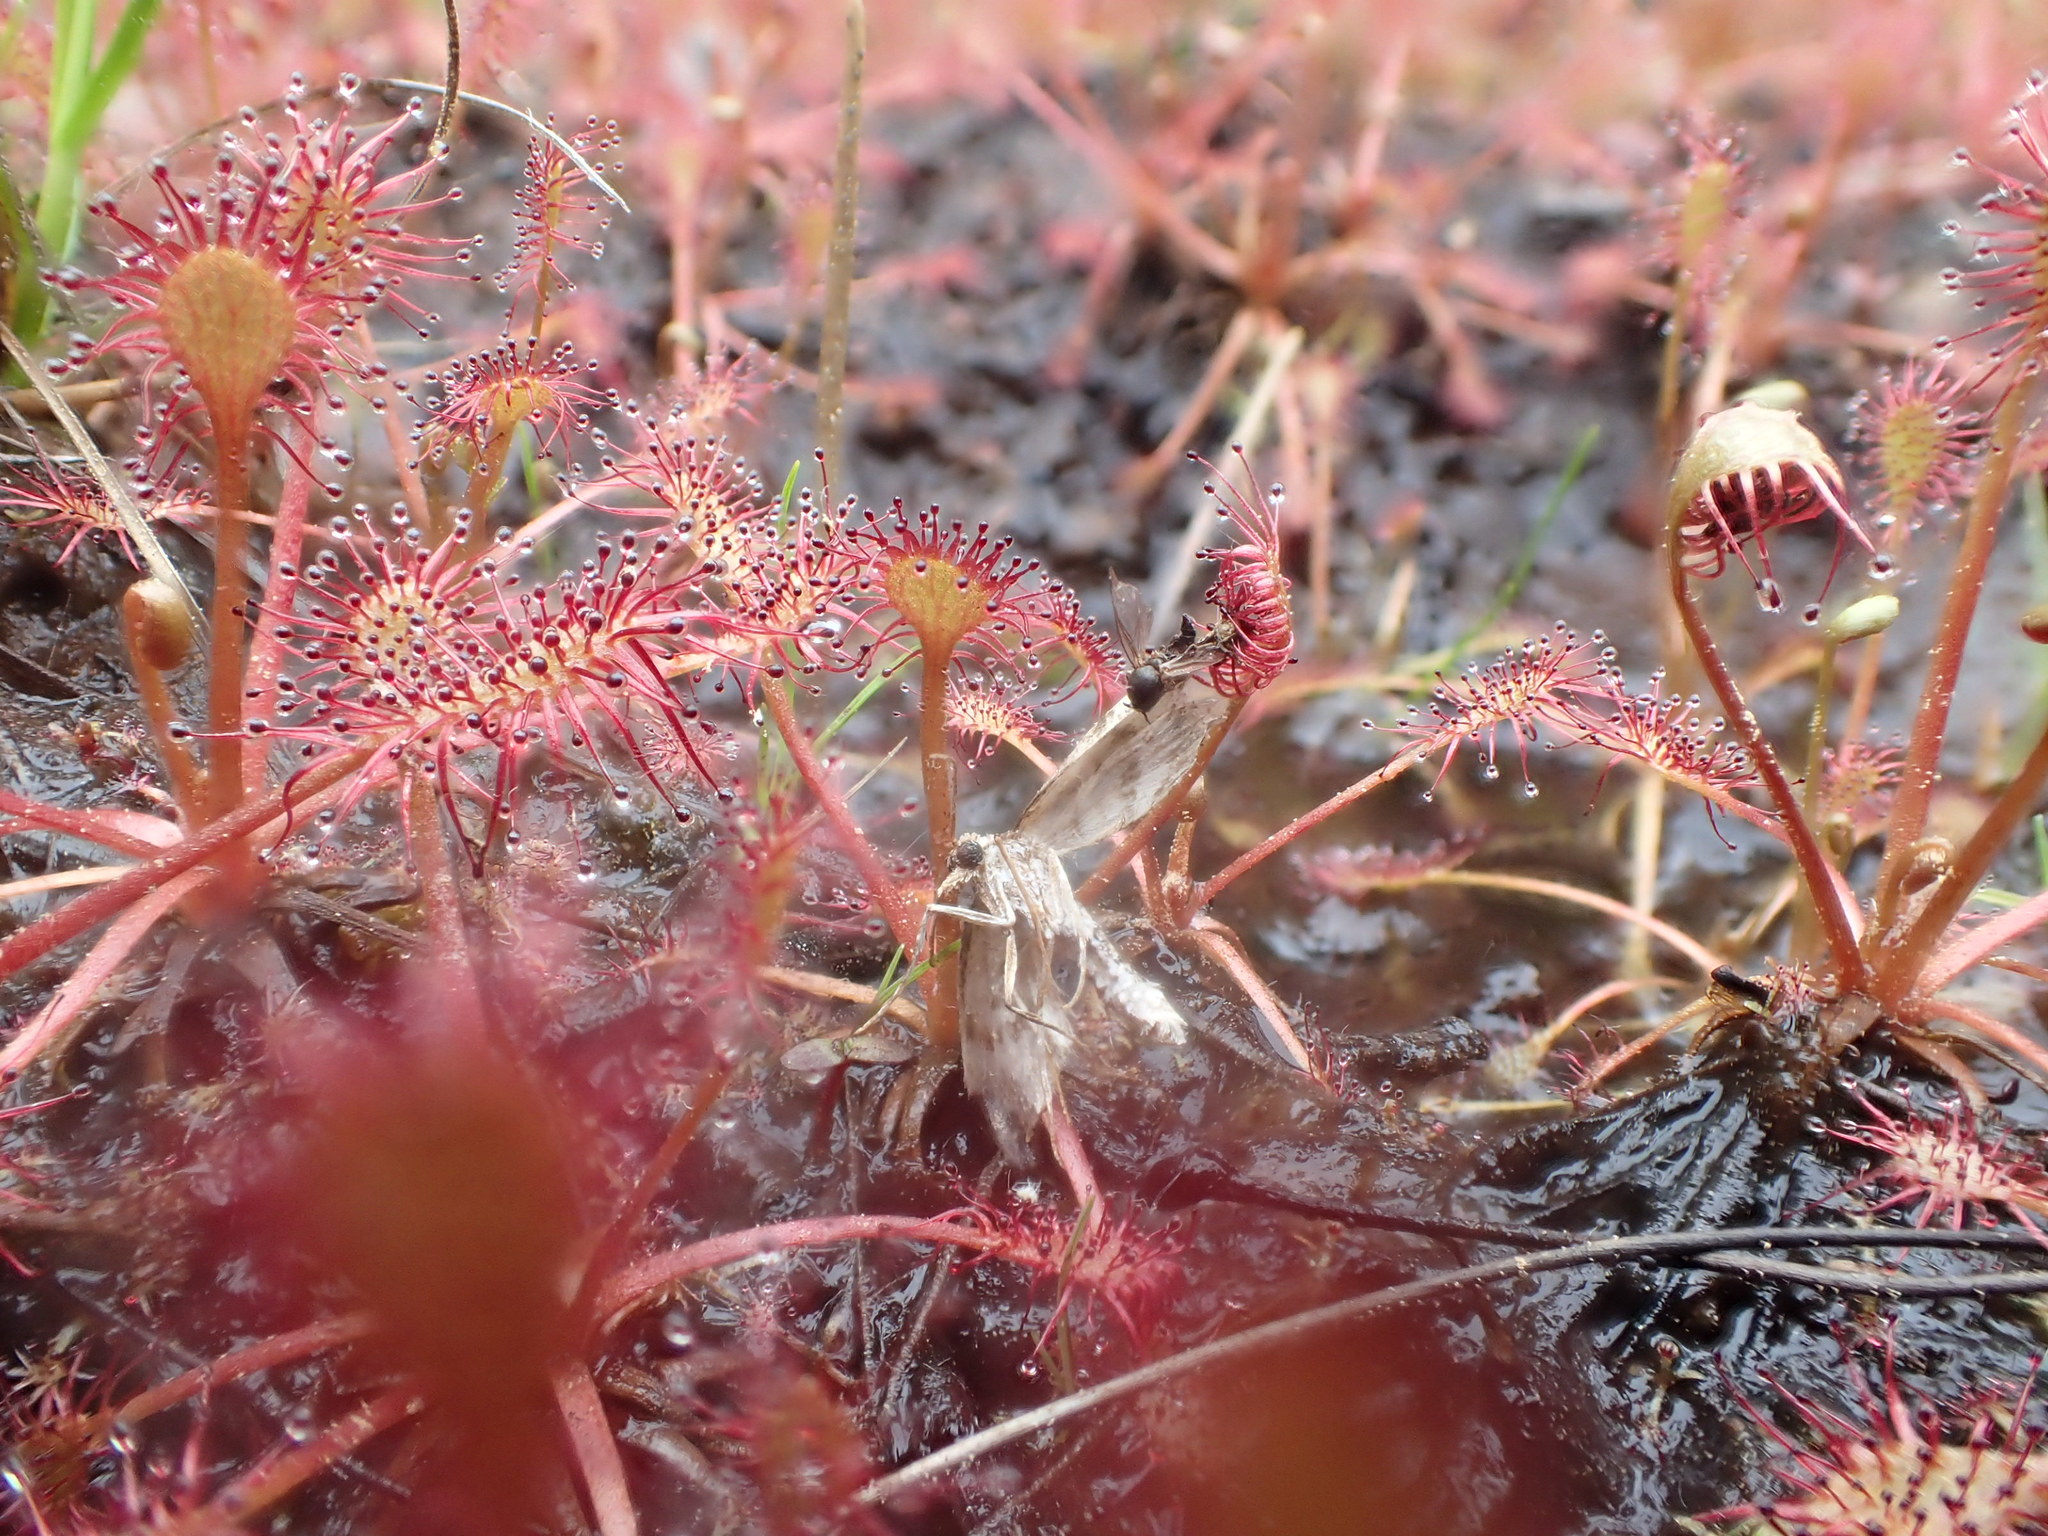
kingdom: Plantae
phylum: Tracheophyta
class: Magnoliopsida
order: Caryophyllales
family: Droseraceae
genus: Drosera
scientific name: Drosera intermedia
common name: Oblong-leaved sundew
